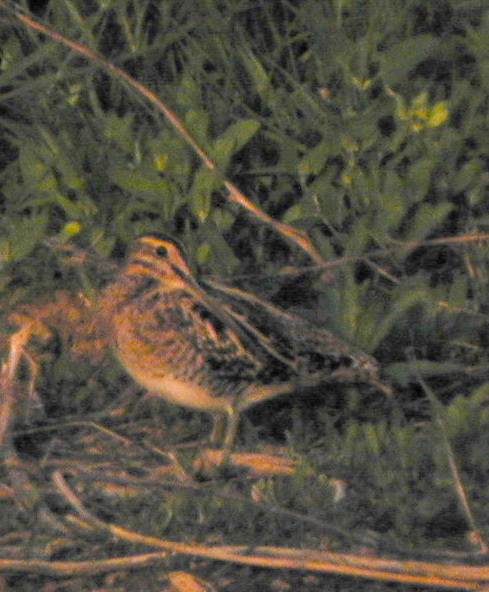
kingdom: Animalia
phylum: Chordata
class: Aves
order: Charadriiformes
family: Scolopacidae
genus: Gallinago
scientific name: Gallinago gallinago
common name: Common snipe
